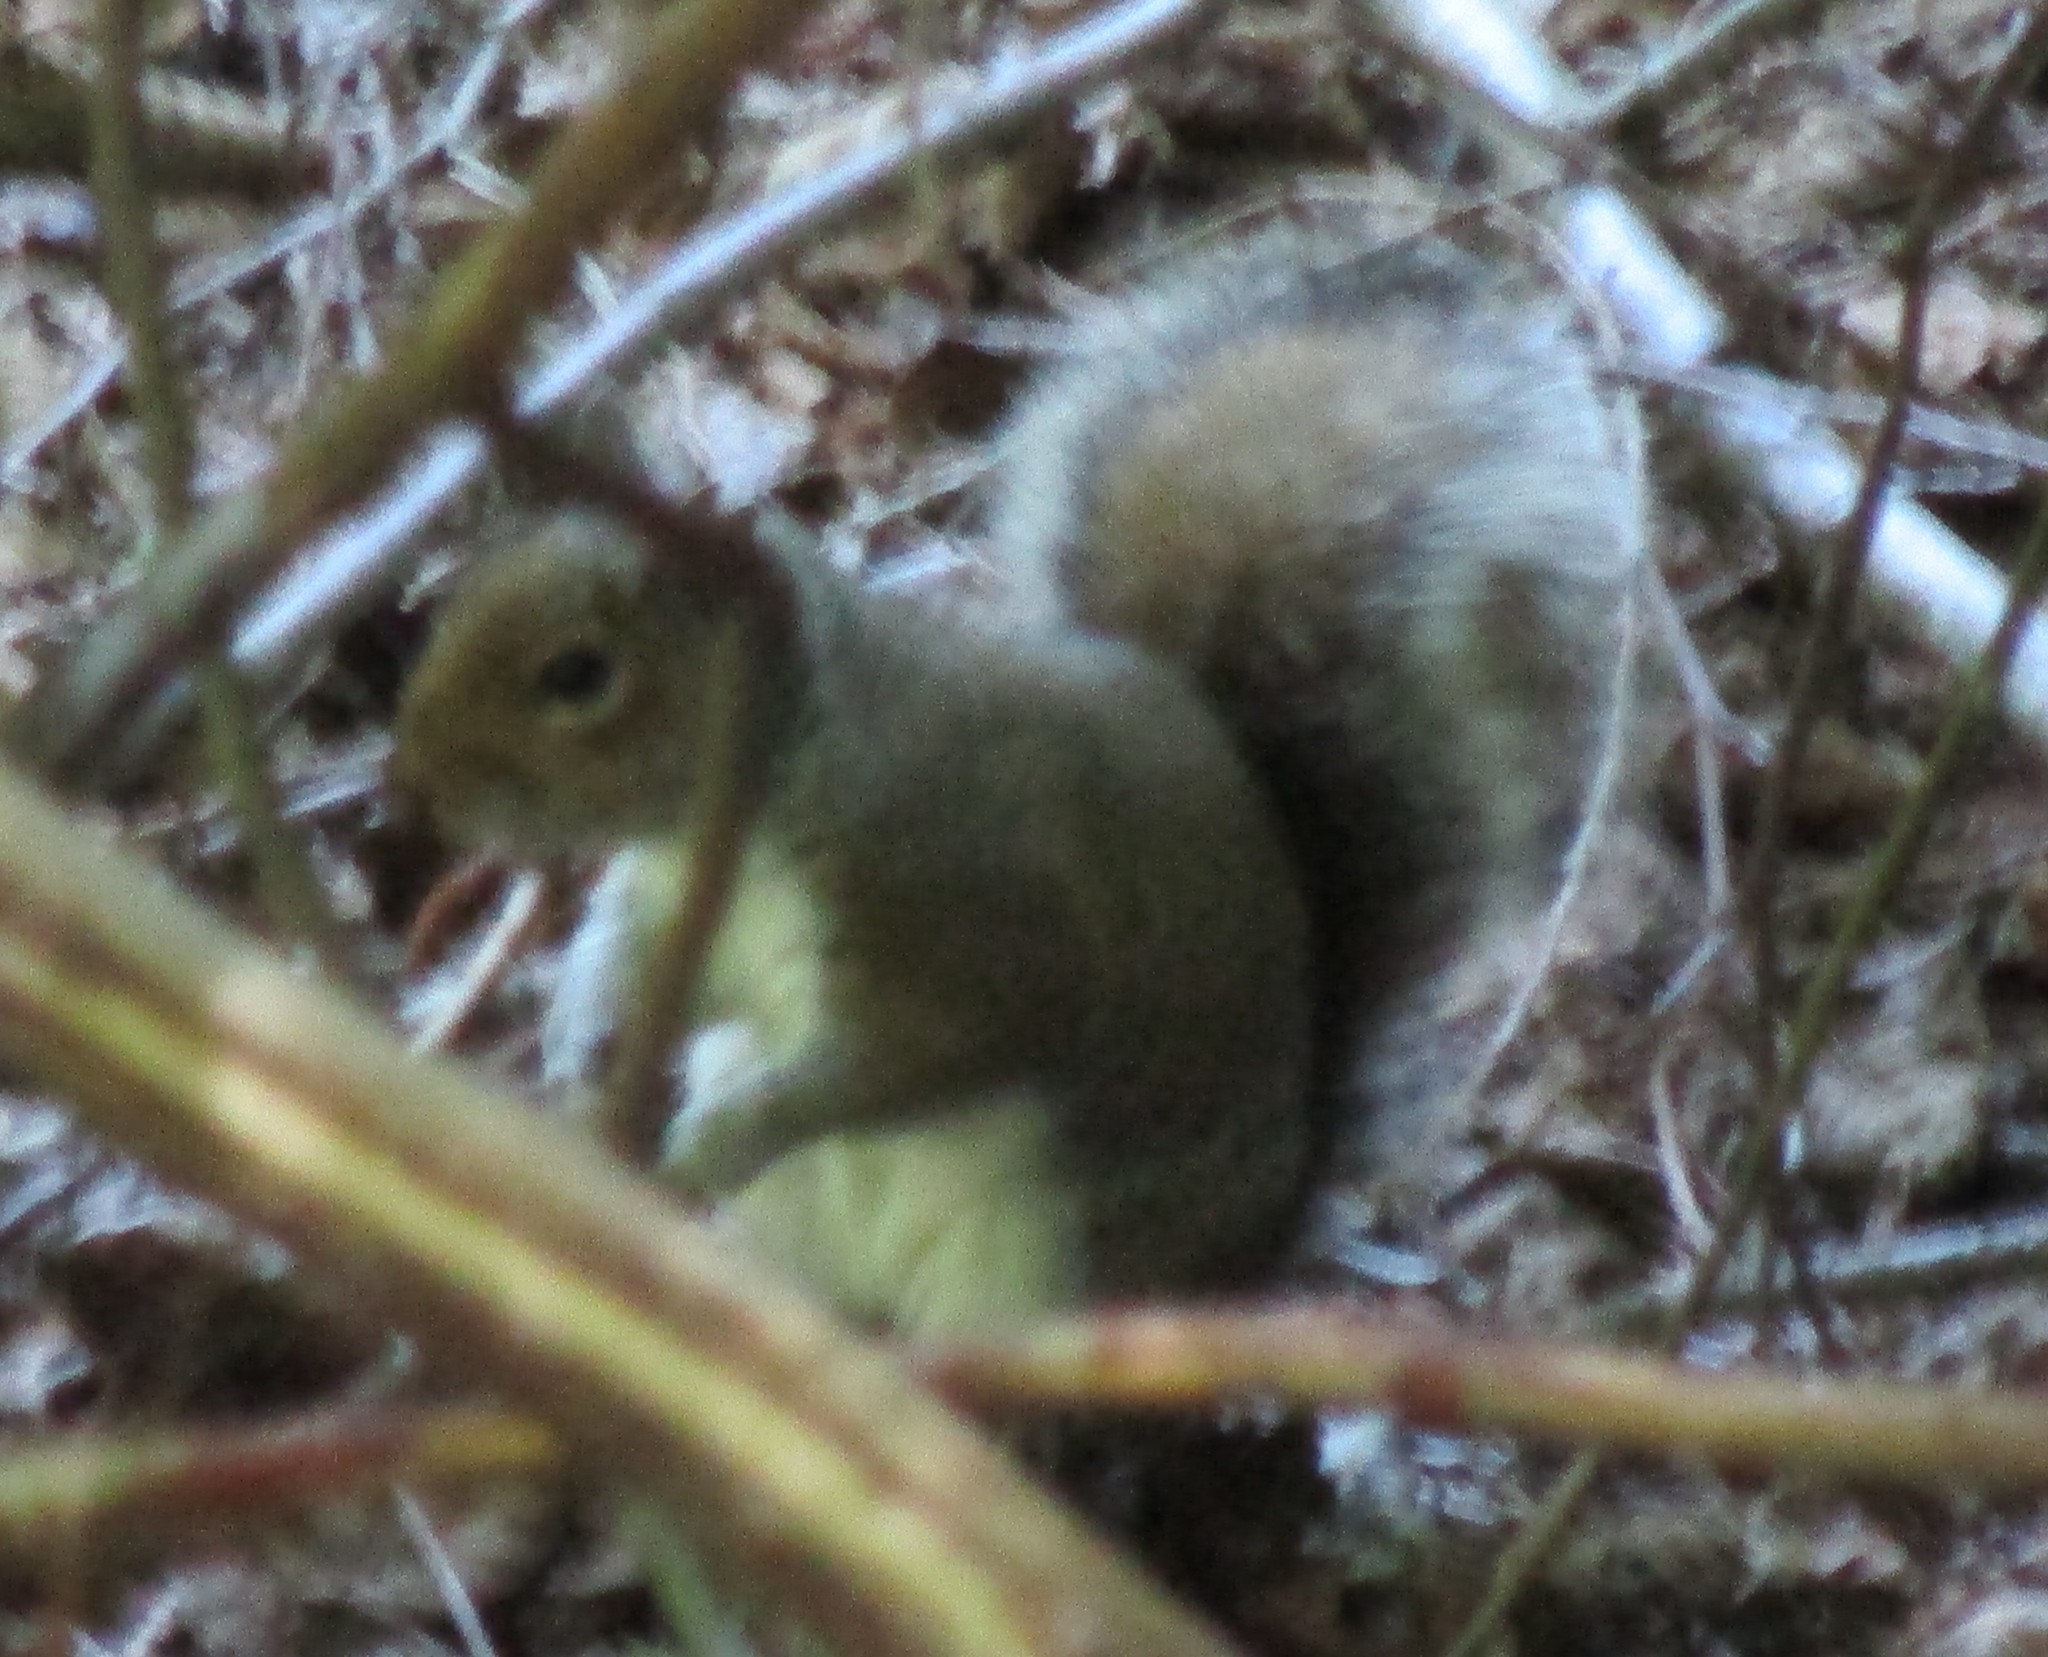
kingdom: Animalia
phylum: Chordata
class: Mammalia
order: Rodentia
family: Sciuridae
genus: Sciurus
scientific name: Sciurus carolinensis
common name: Eastern gray squirrel
